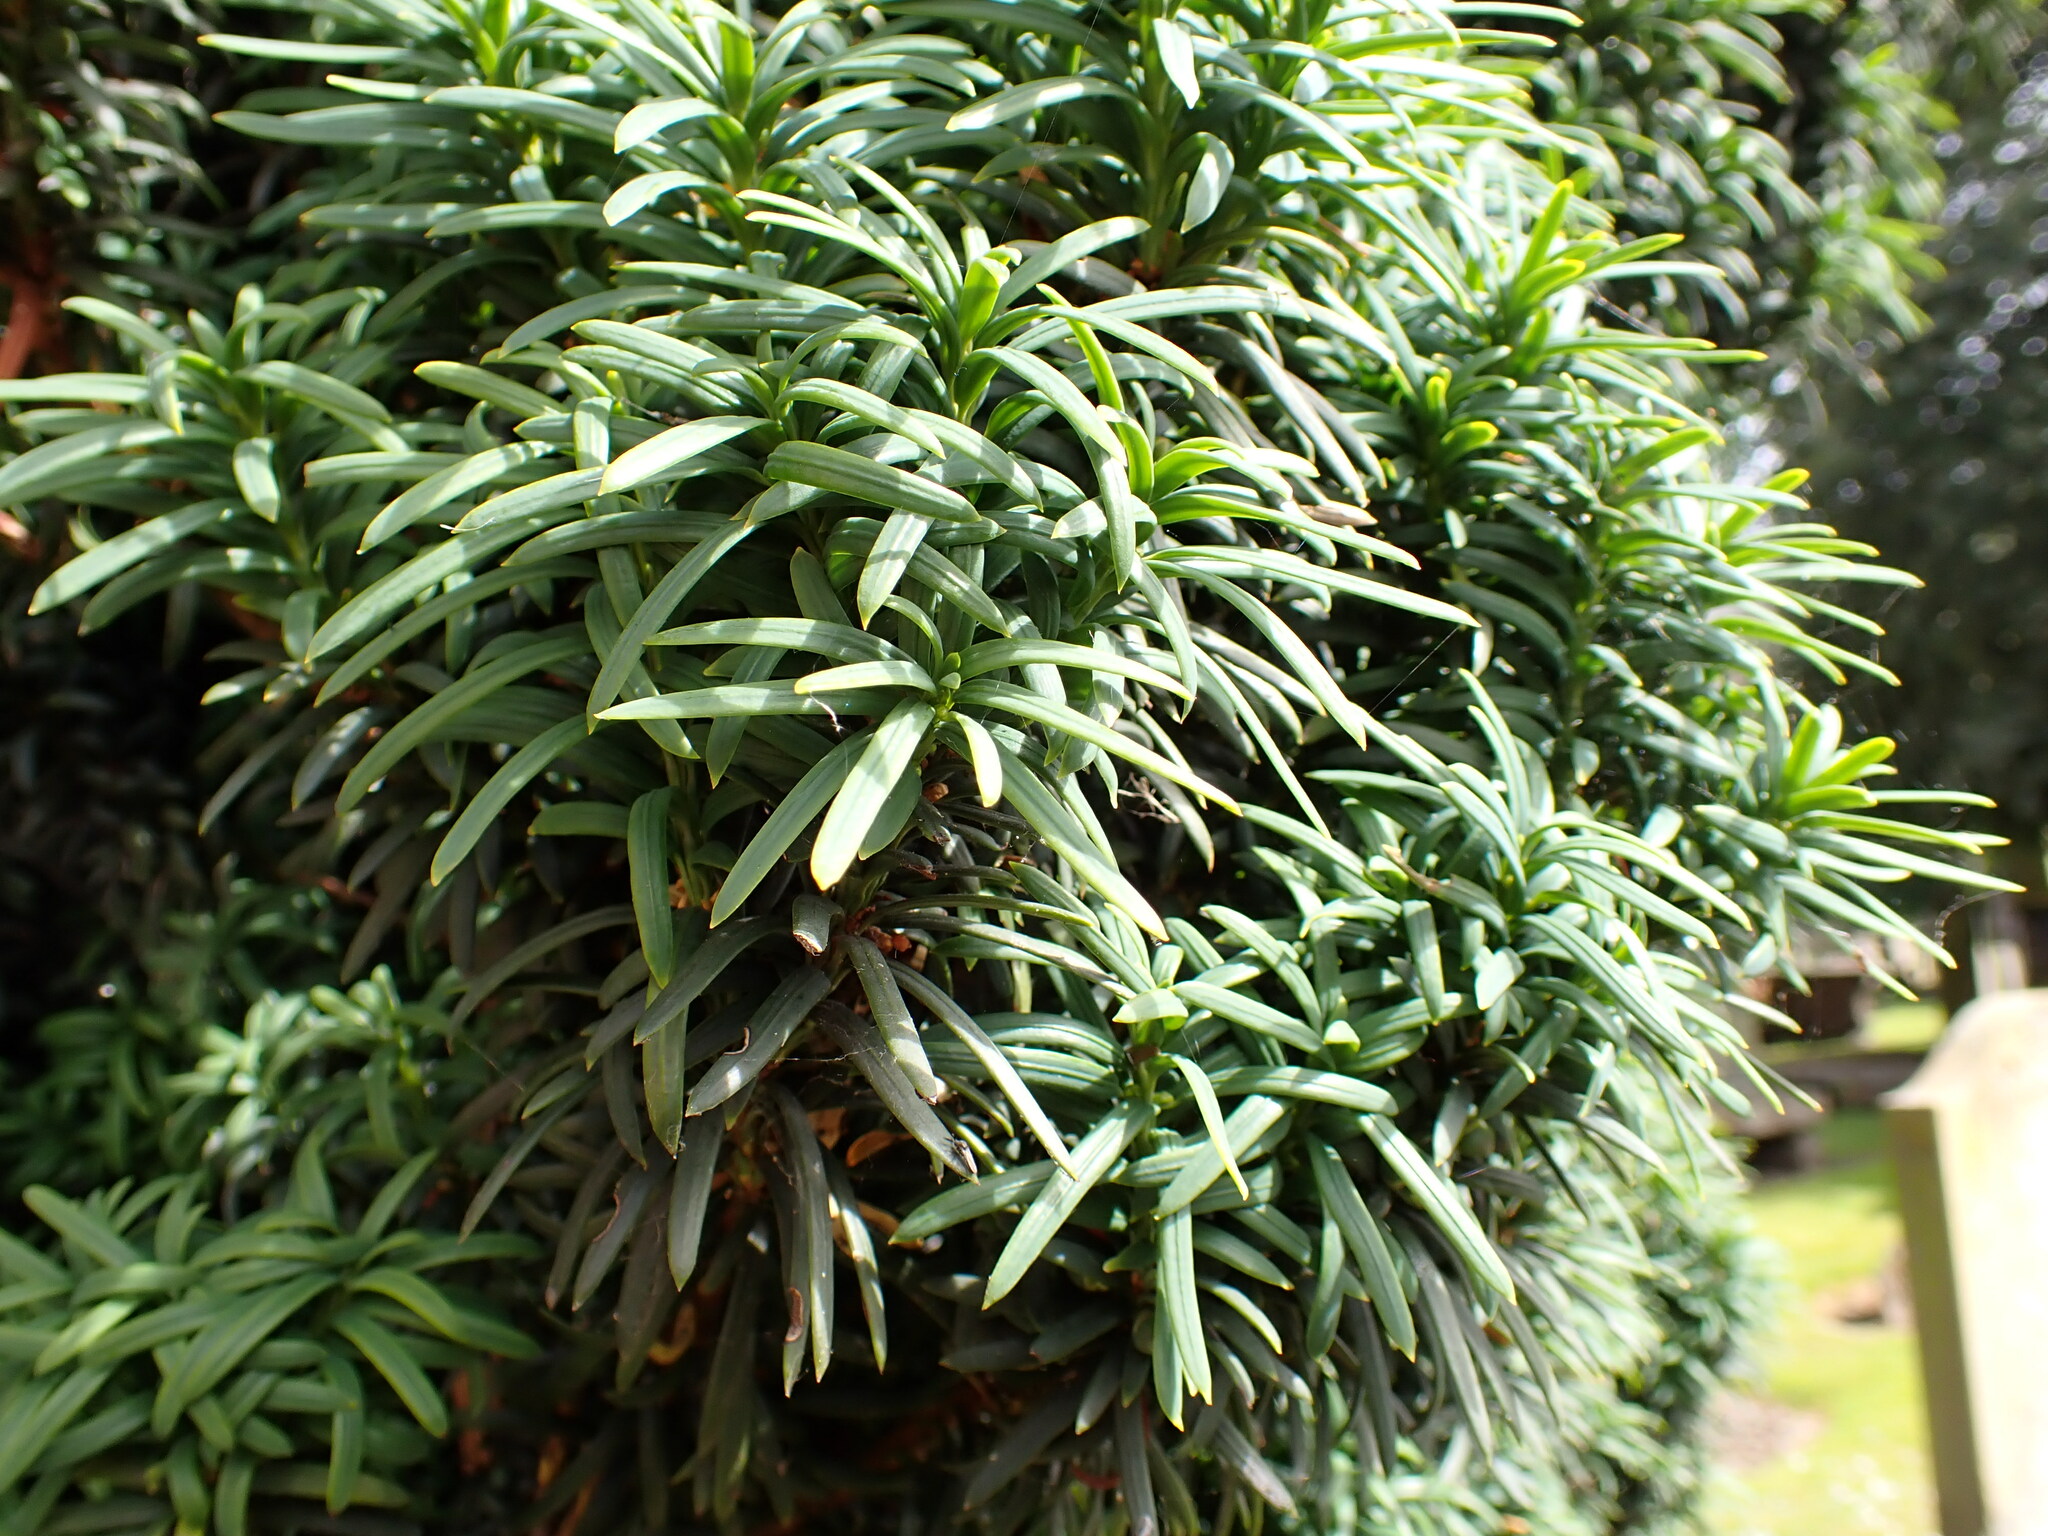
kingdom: Plantae
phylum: Tracheophyta
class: Pinopsida
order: Pinales
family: Taxaceae
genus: Taxus
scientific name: Taxus baccata
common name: Yew
